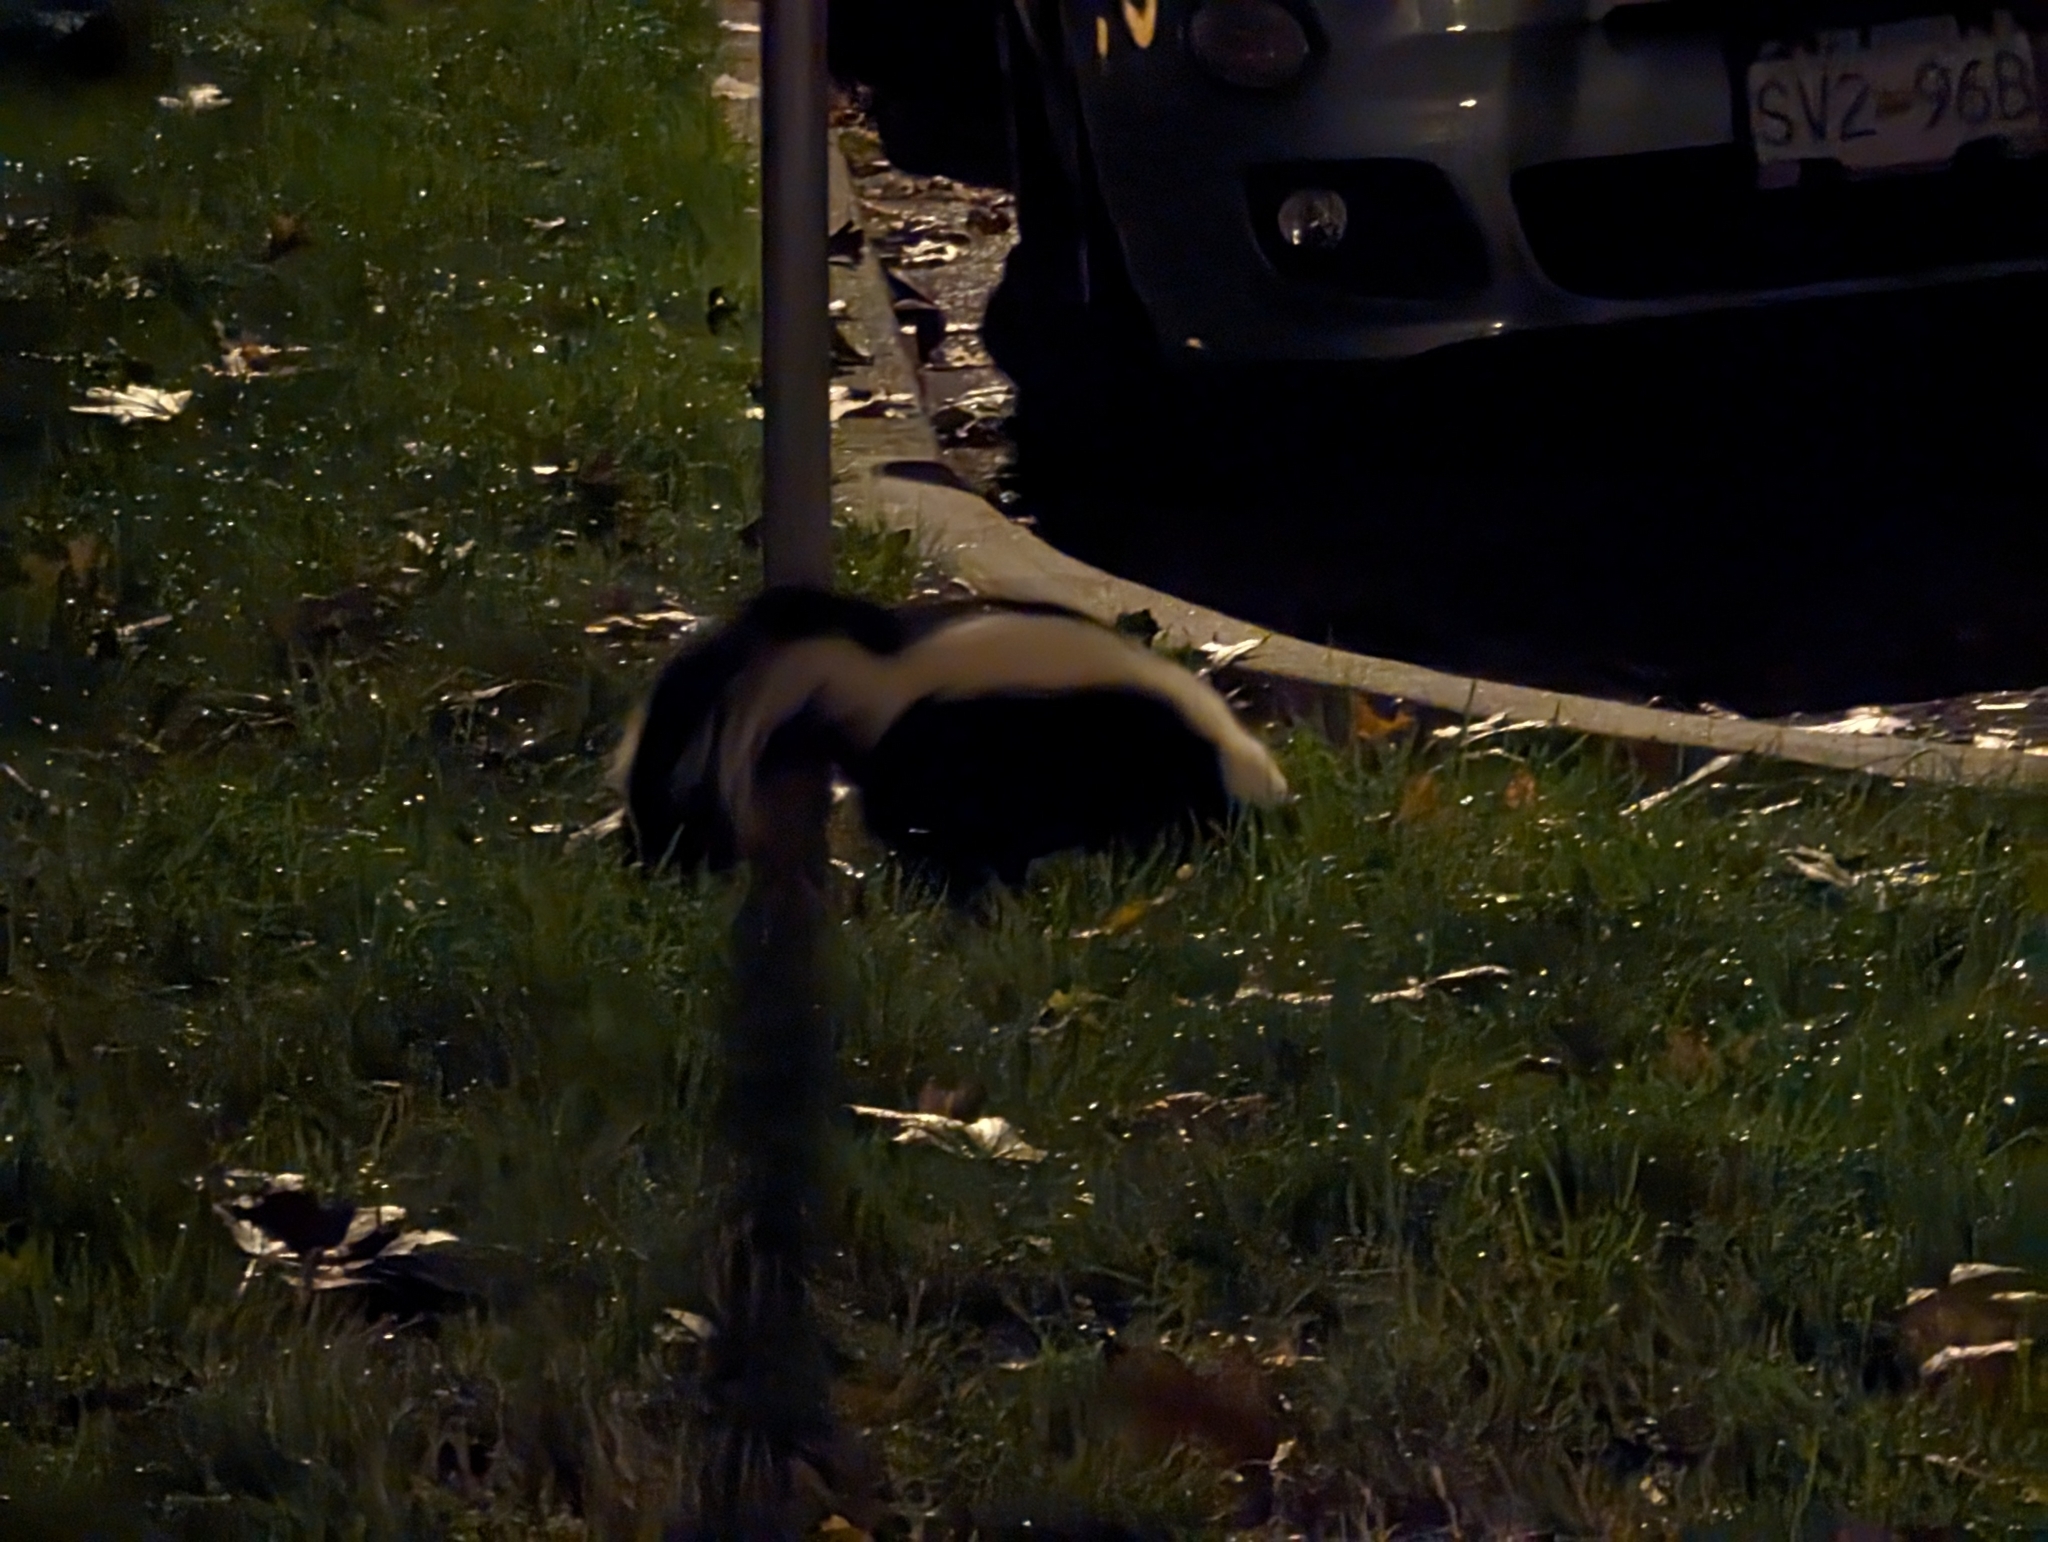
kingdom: Animalia
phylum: Chordata
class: Mammalia
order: Carnivora
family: Mephitidae
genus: Mephitis
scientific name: Mephitis mephitis
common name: Striped skunk
